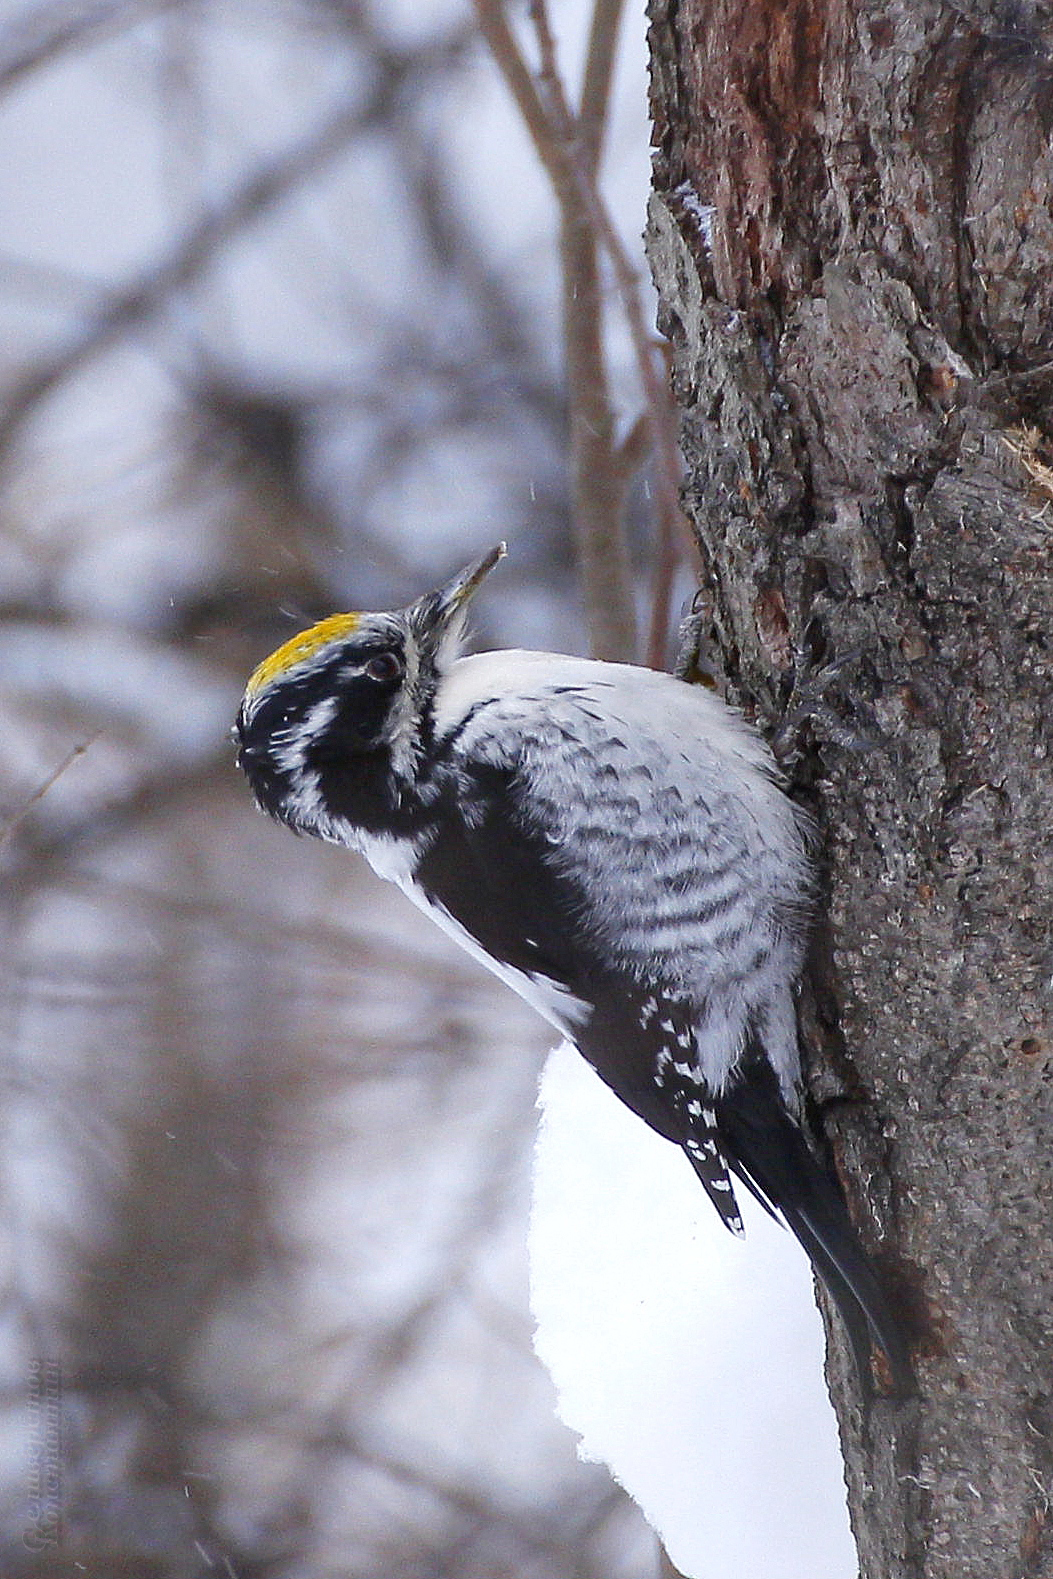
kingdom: Animalia
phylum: Chordata
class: Aves
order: Piciformes
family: Picidae
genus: Picoides
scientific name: Picoides tridactylus
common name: Eurasian three-toed woodpecker
